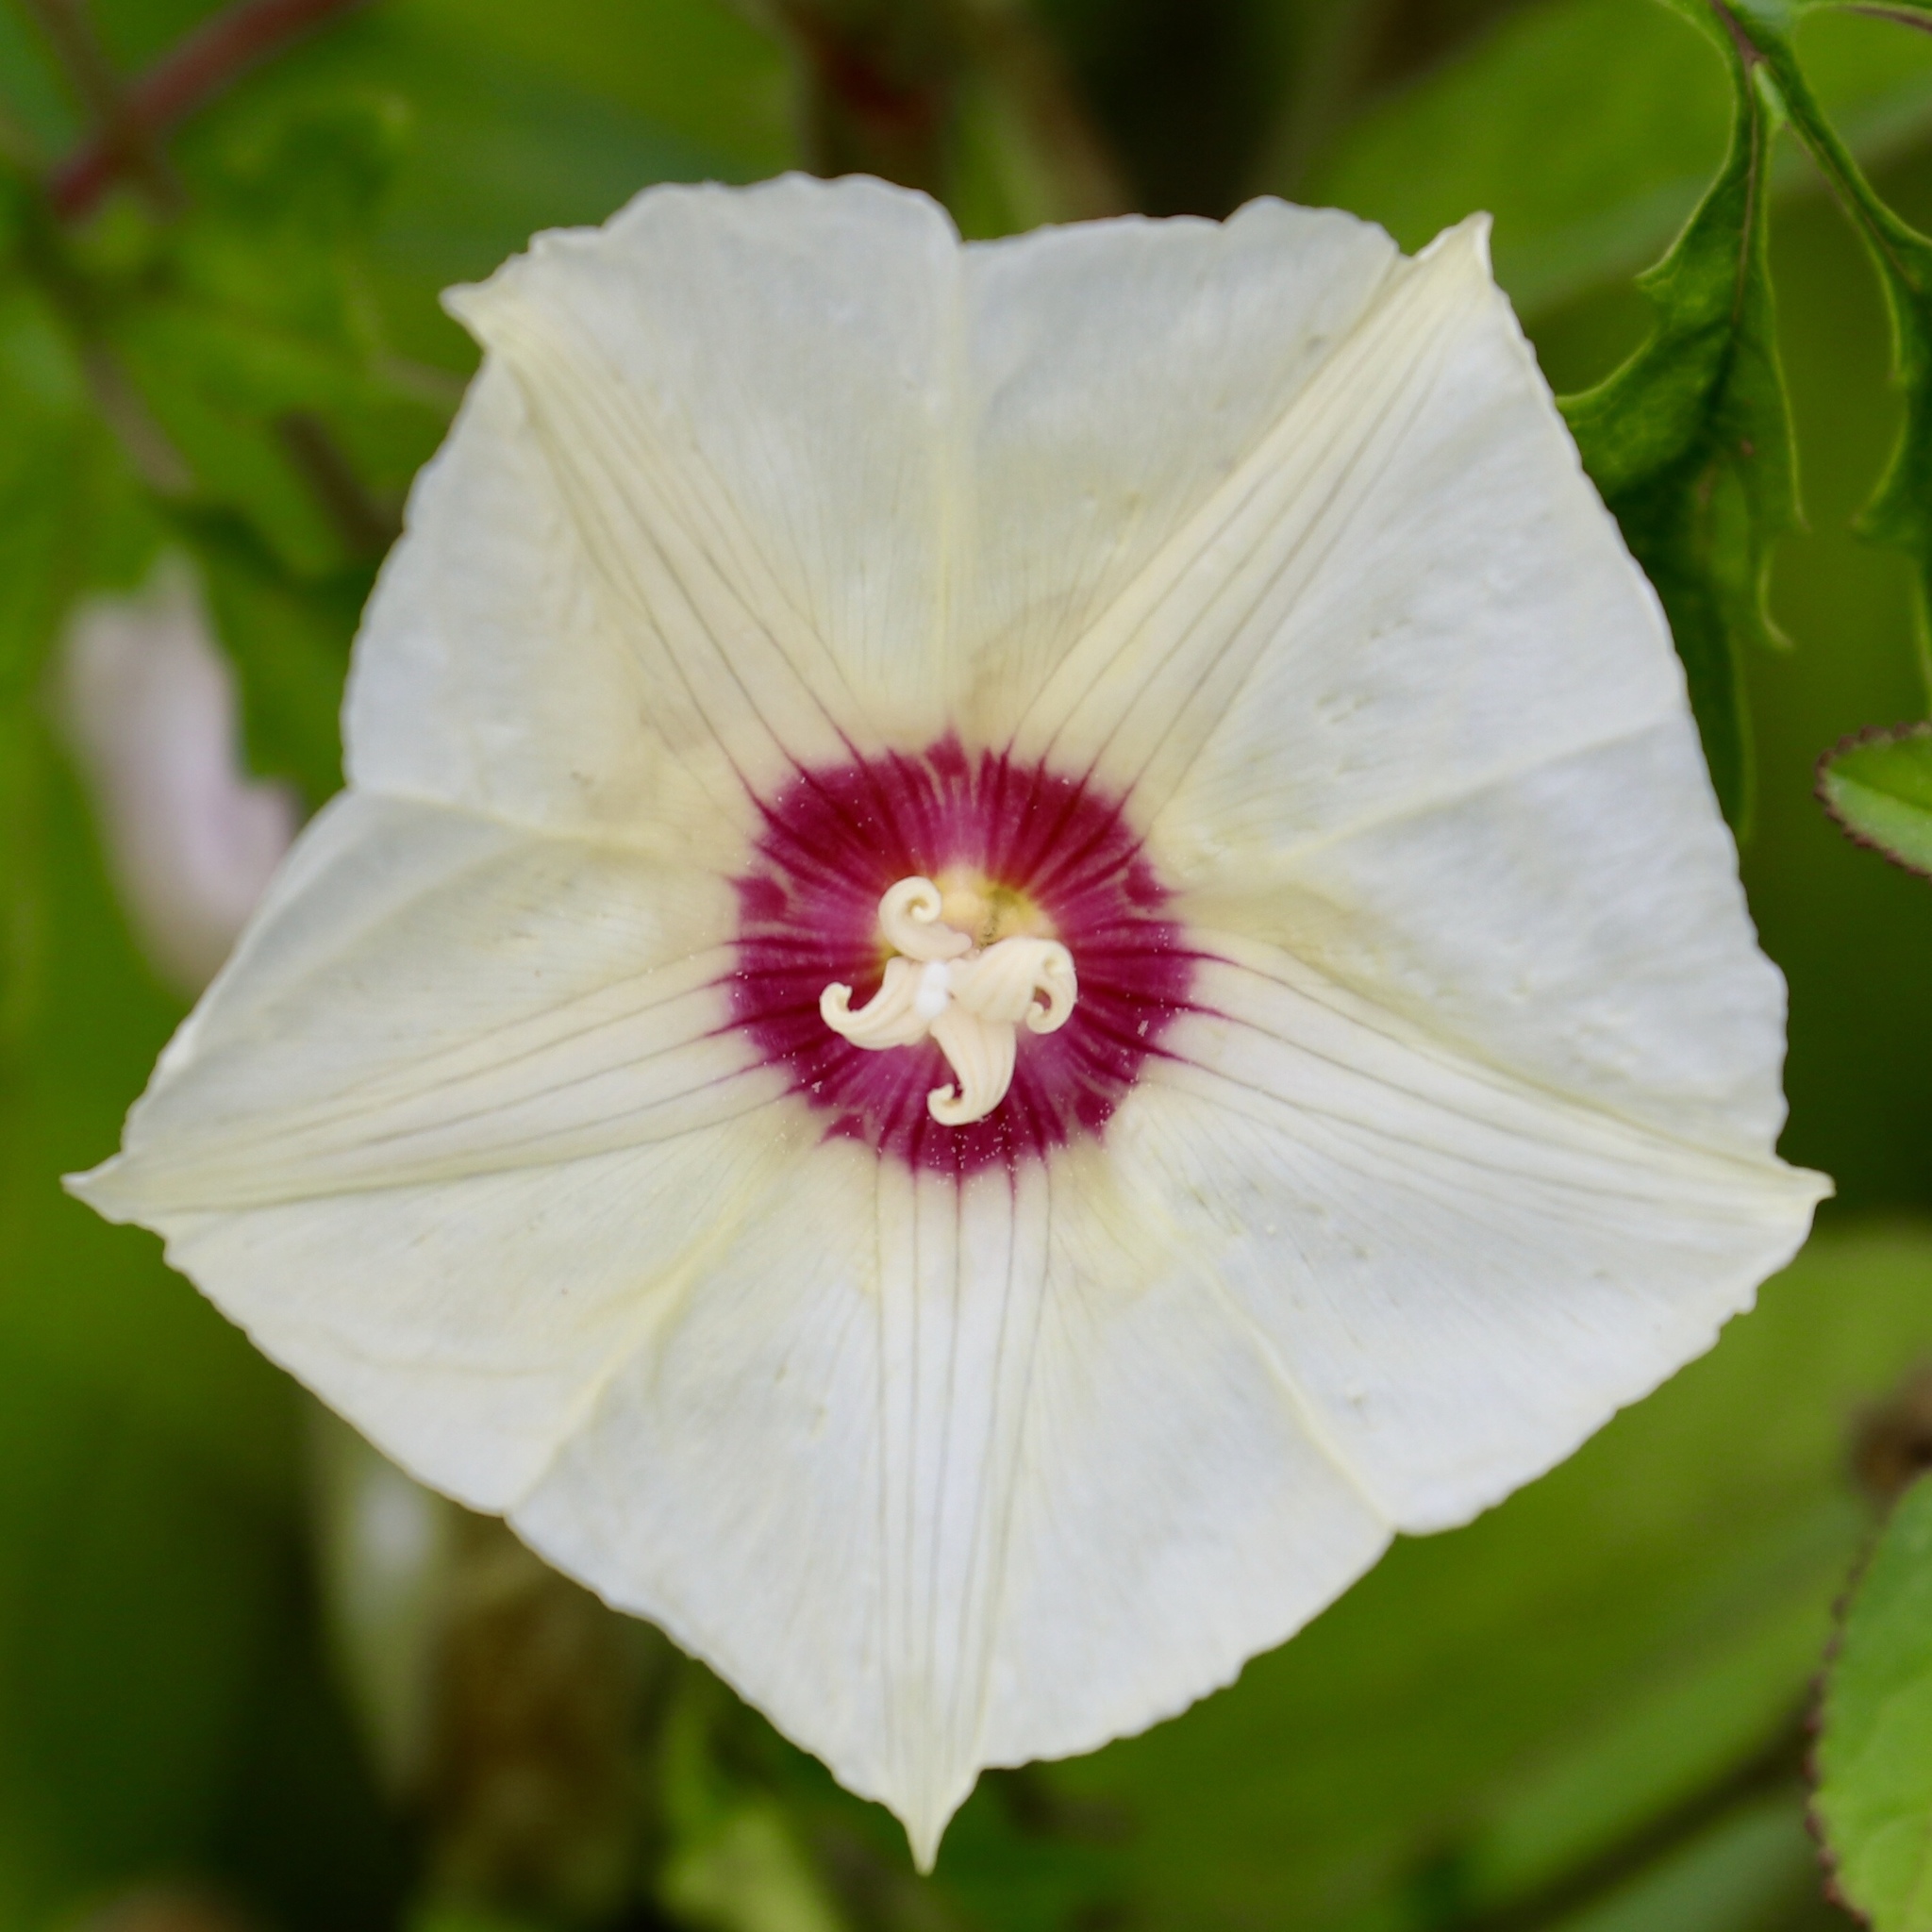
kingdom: Plantae
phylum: Tracheophyta
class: Magnoliopsida
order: Solanales
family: Convolvulaceae
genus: Distimake
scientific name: Distimake dissectus
